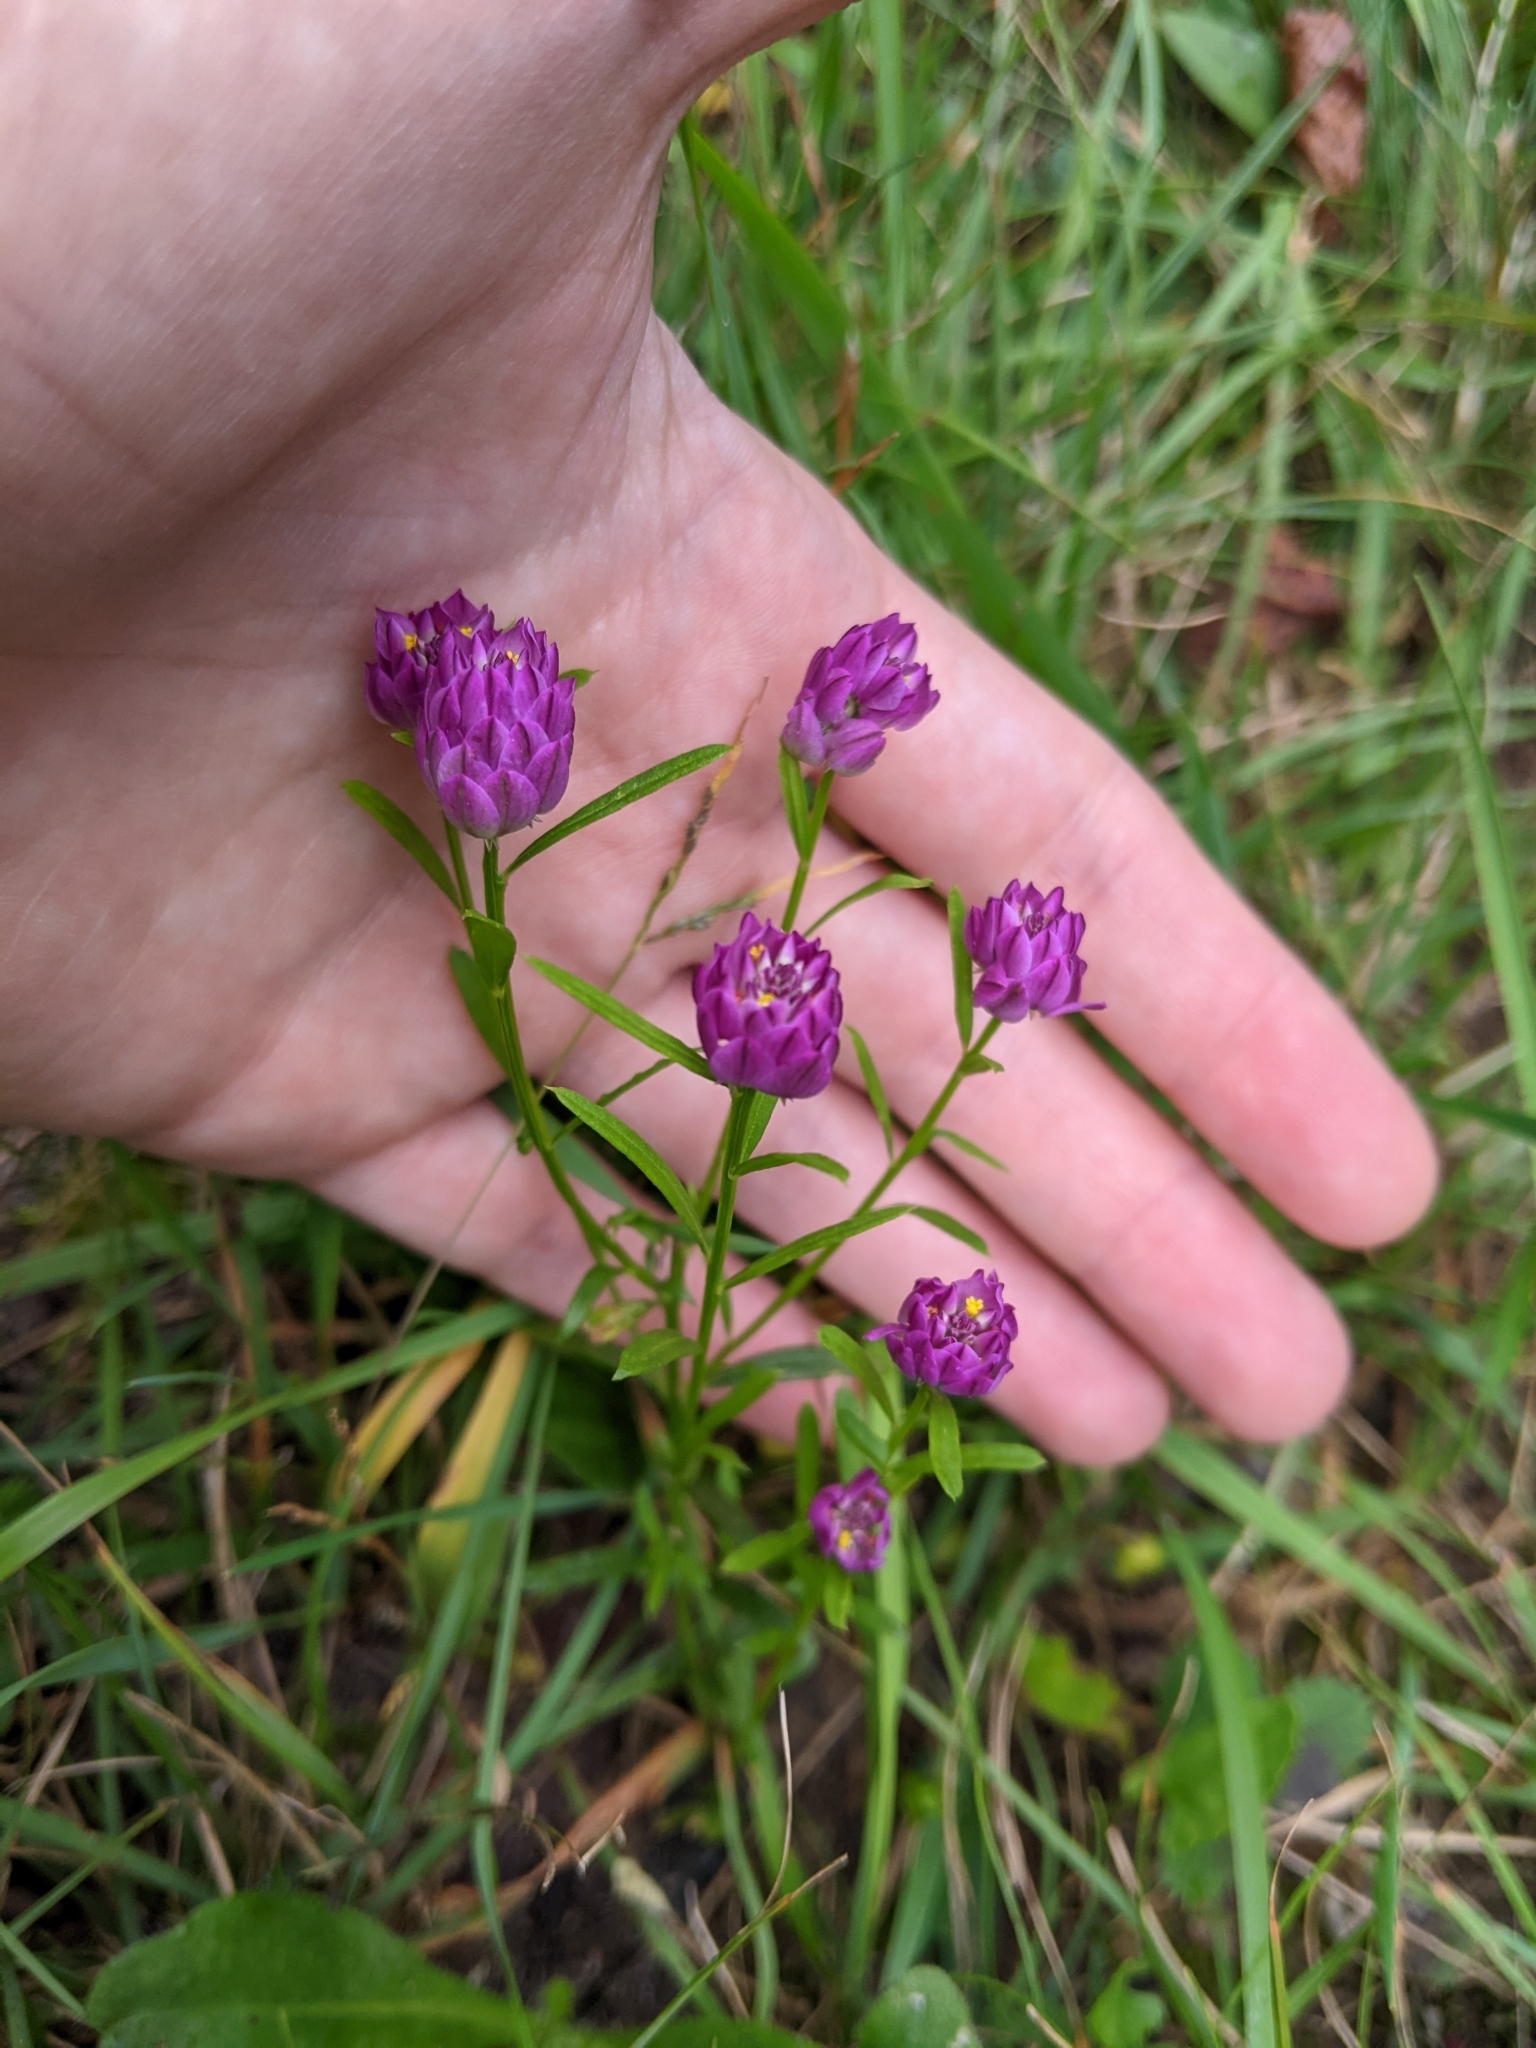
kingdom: Plantae
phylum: Tracheophyta
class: Magnoliopsida
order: Fabales
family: Polygalaceae
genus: Polygala
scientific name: Polygala sanguinea
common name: Blood milkwort
